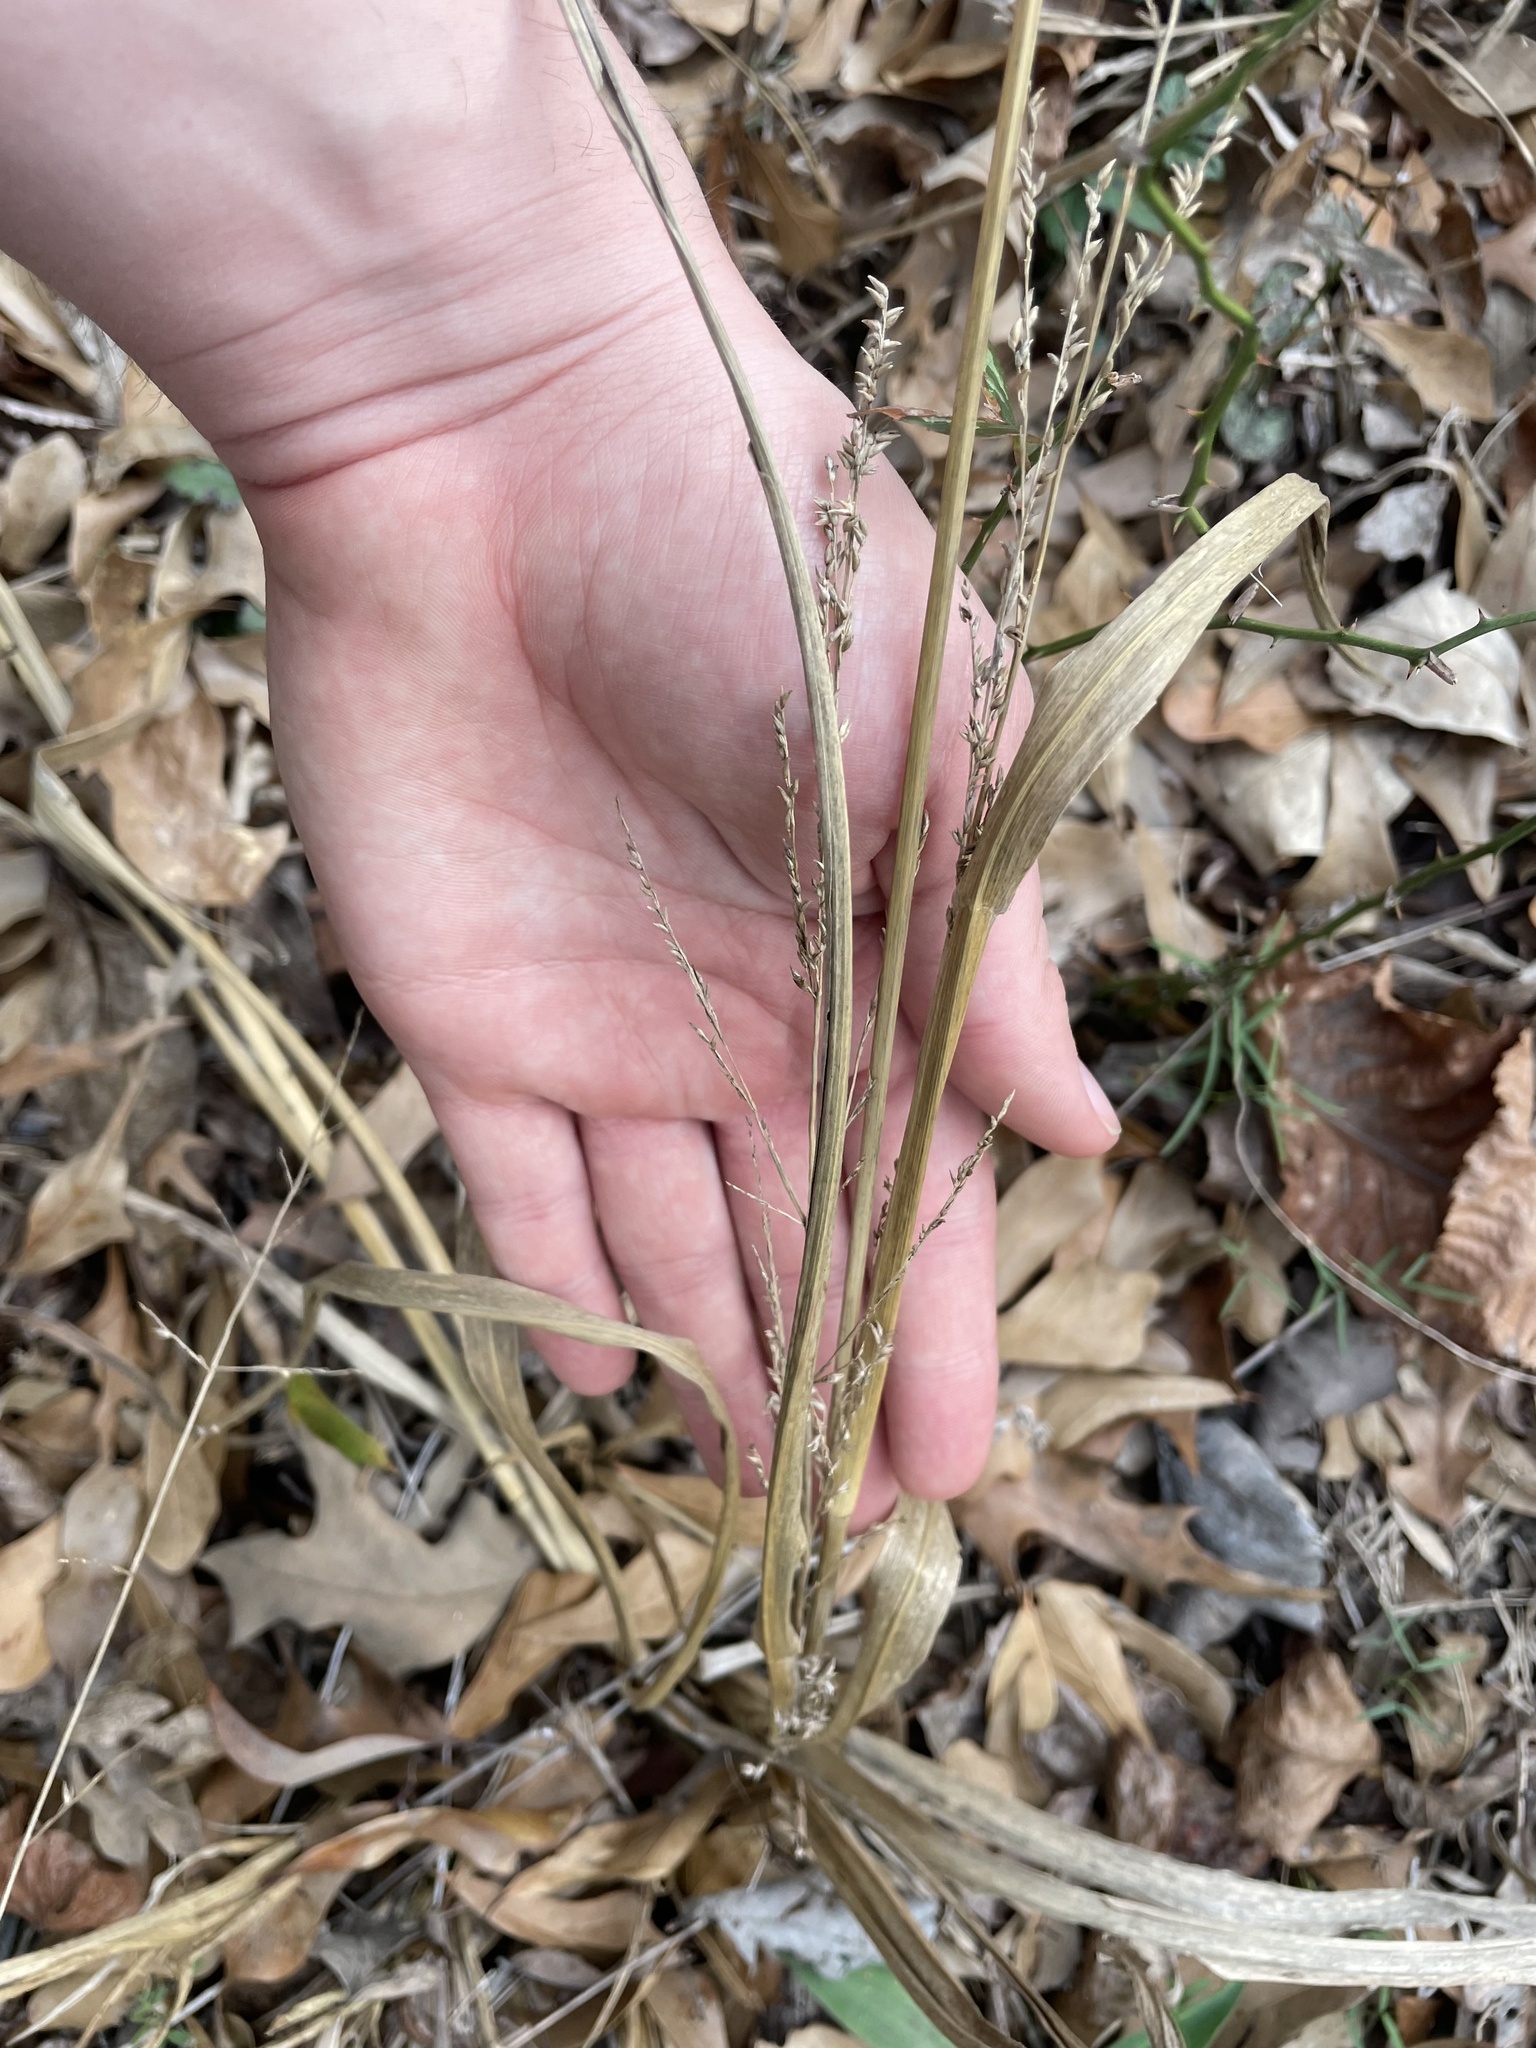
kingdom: Plantae
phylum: Tracheophyta
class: Liliopsida
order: Poales
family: Poaceae
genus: Coleataenia
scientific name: Coleataenia anceps
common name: Beaked panic grass
